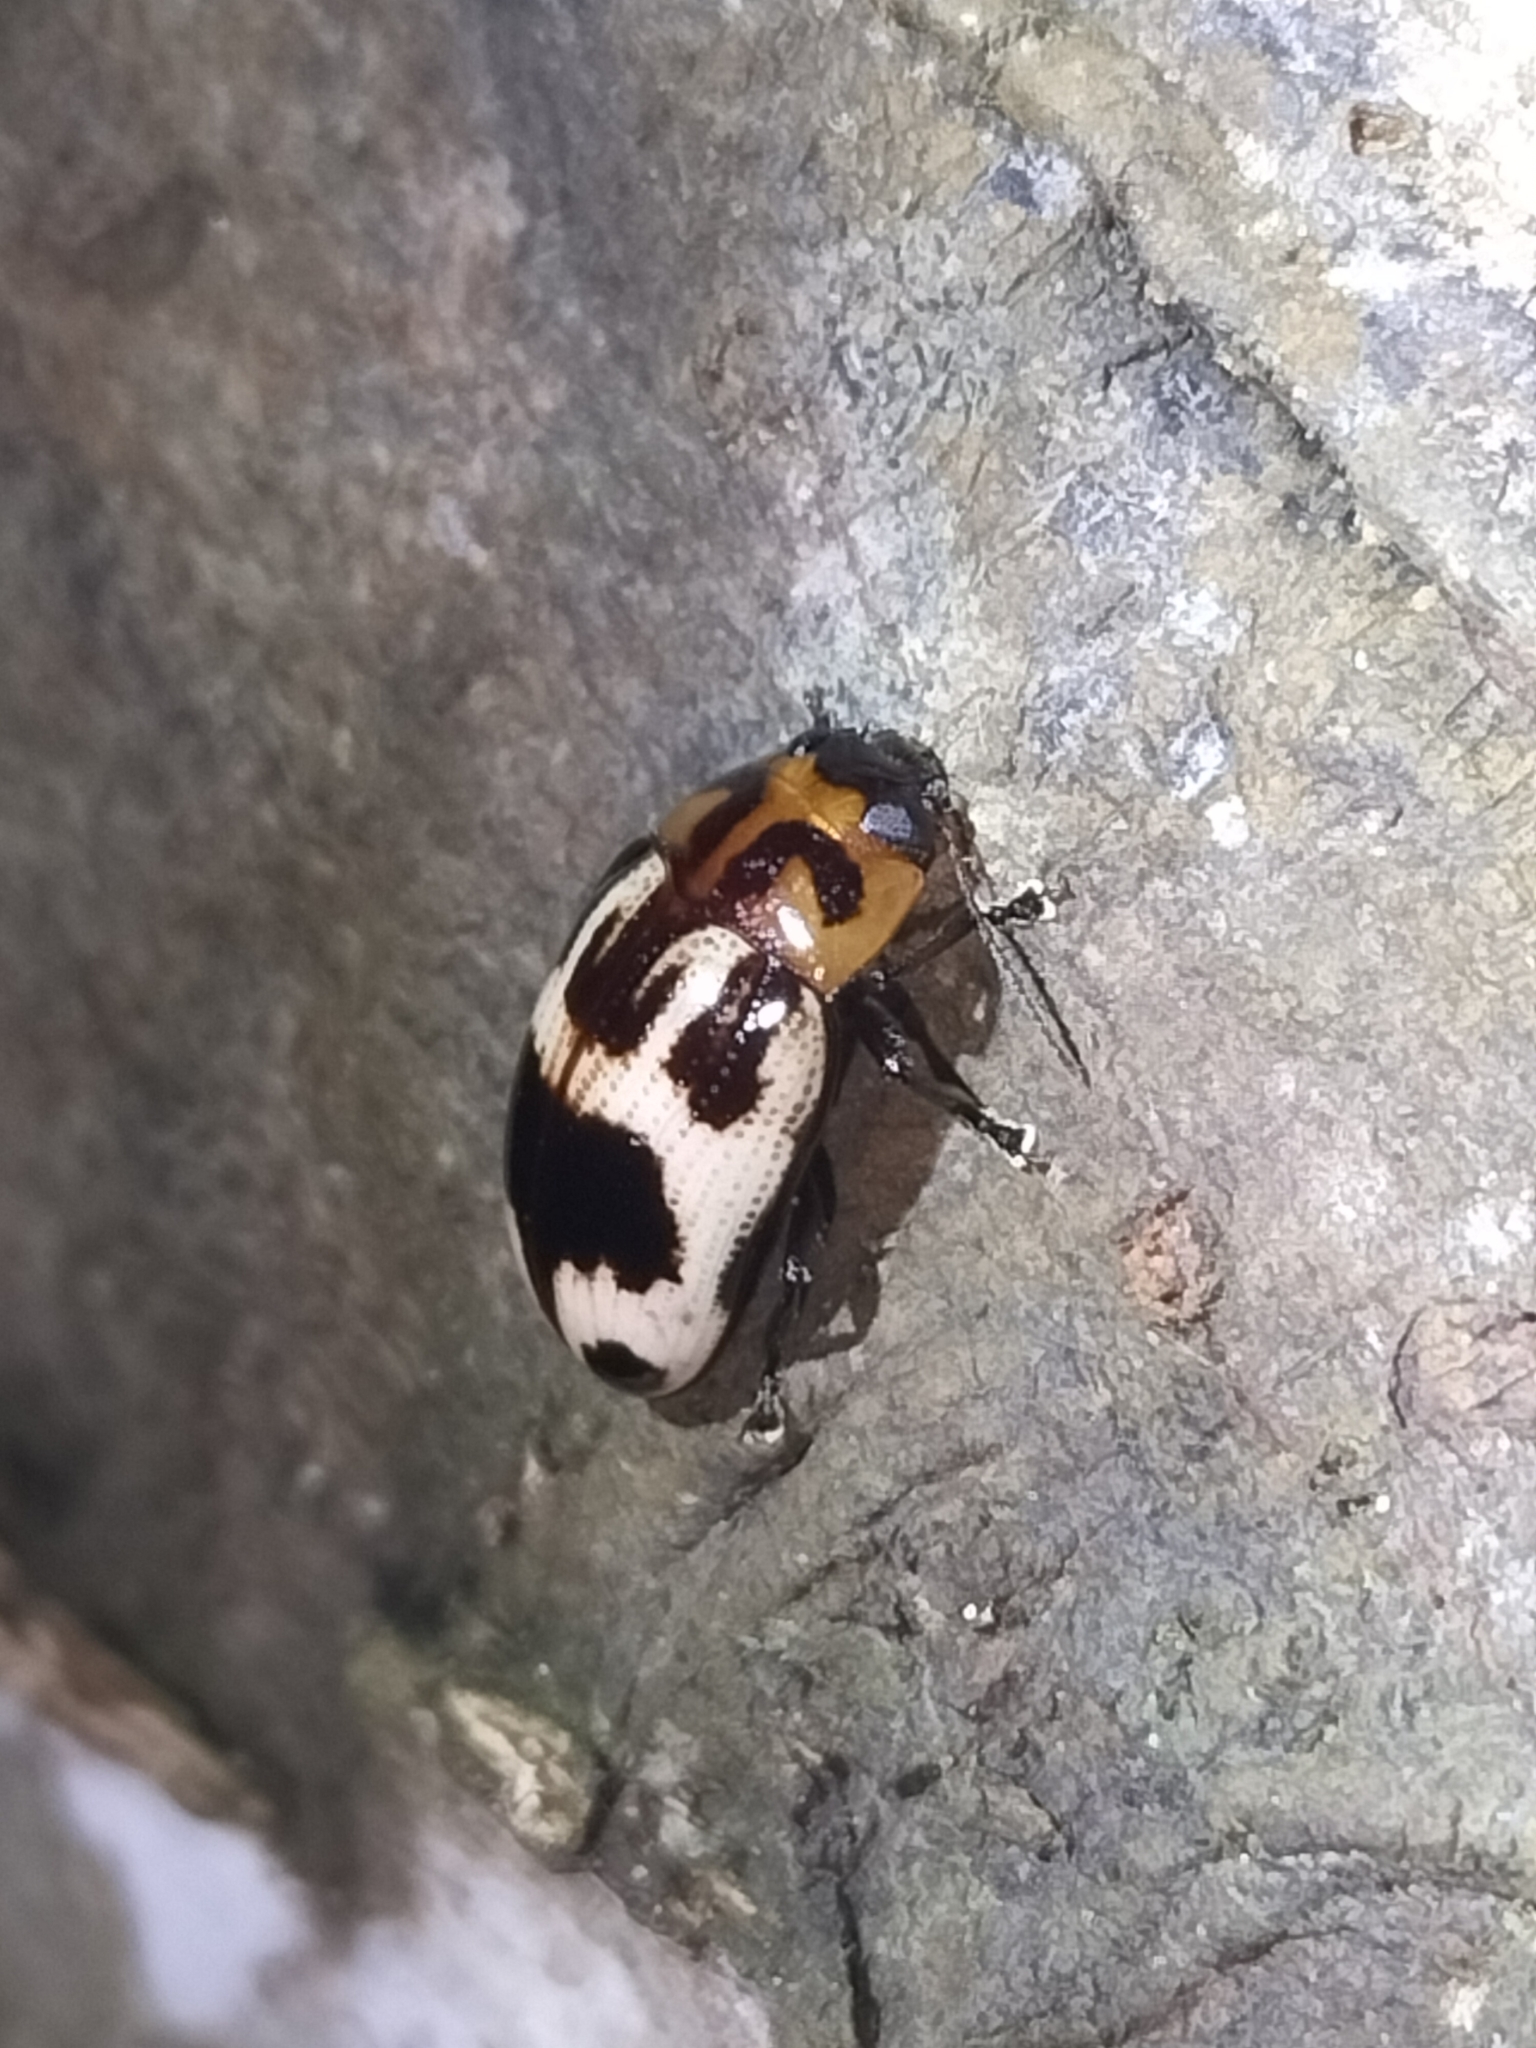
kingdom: Animalia
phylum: Arthropoda
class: Insecta
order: Coleoptera
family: Chrysomelidae
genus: Platymela
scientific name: Platymela
